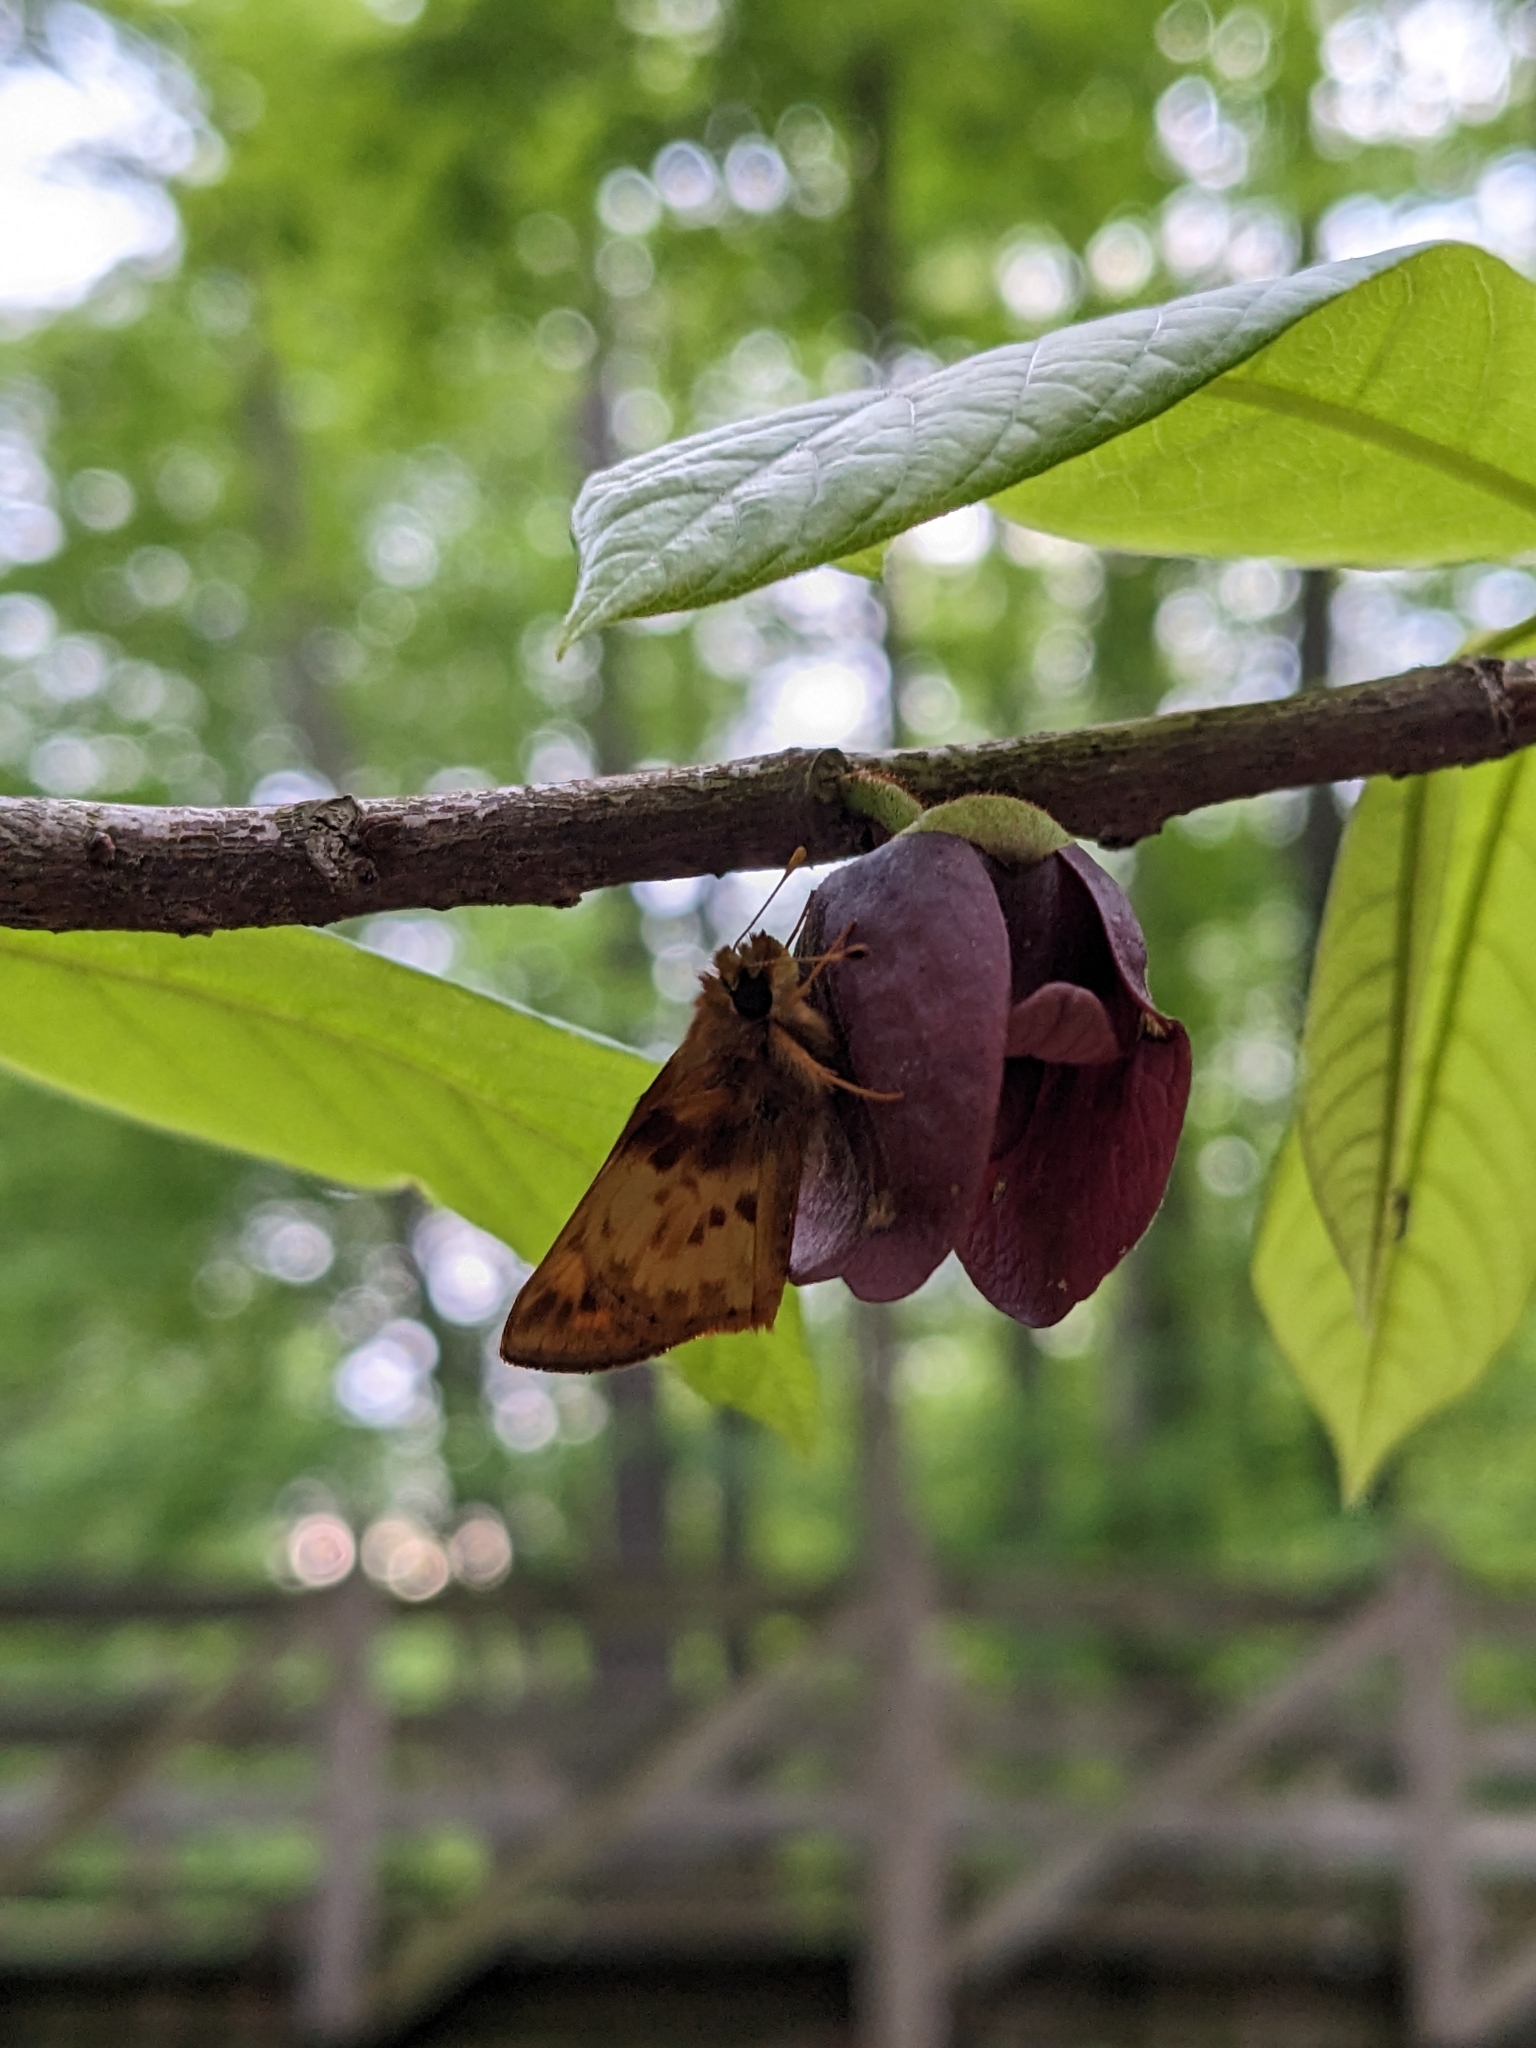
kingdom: Animalia
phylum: Arthropoda
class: Insecta
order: Lepidoptera
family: Hesperiidae
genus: Lon
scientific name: Lon zabulon
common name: Zabulon skipper
